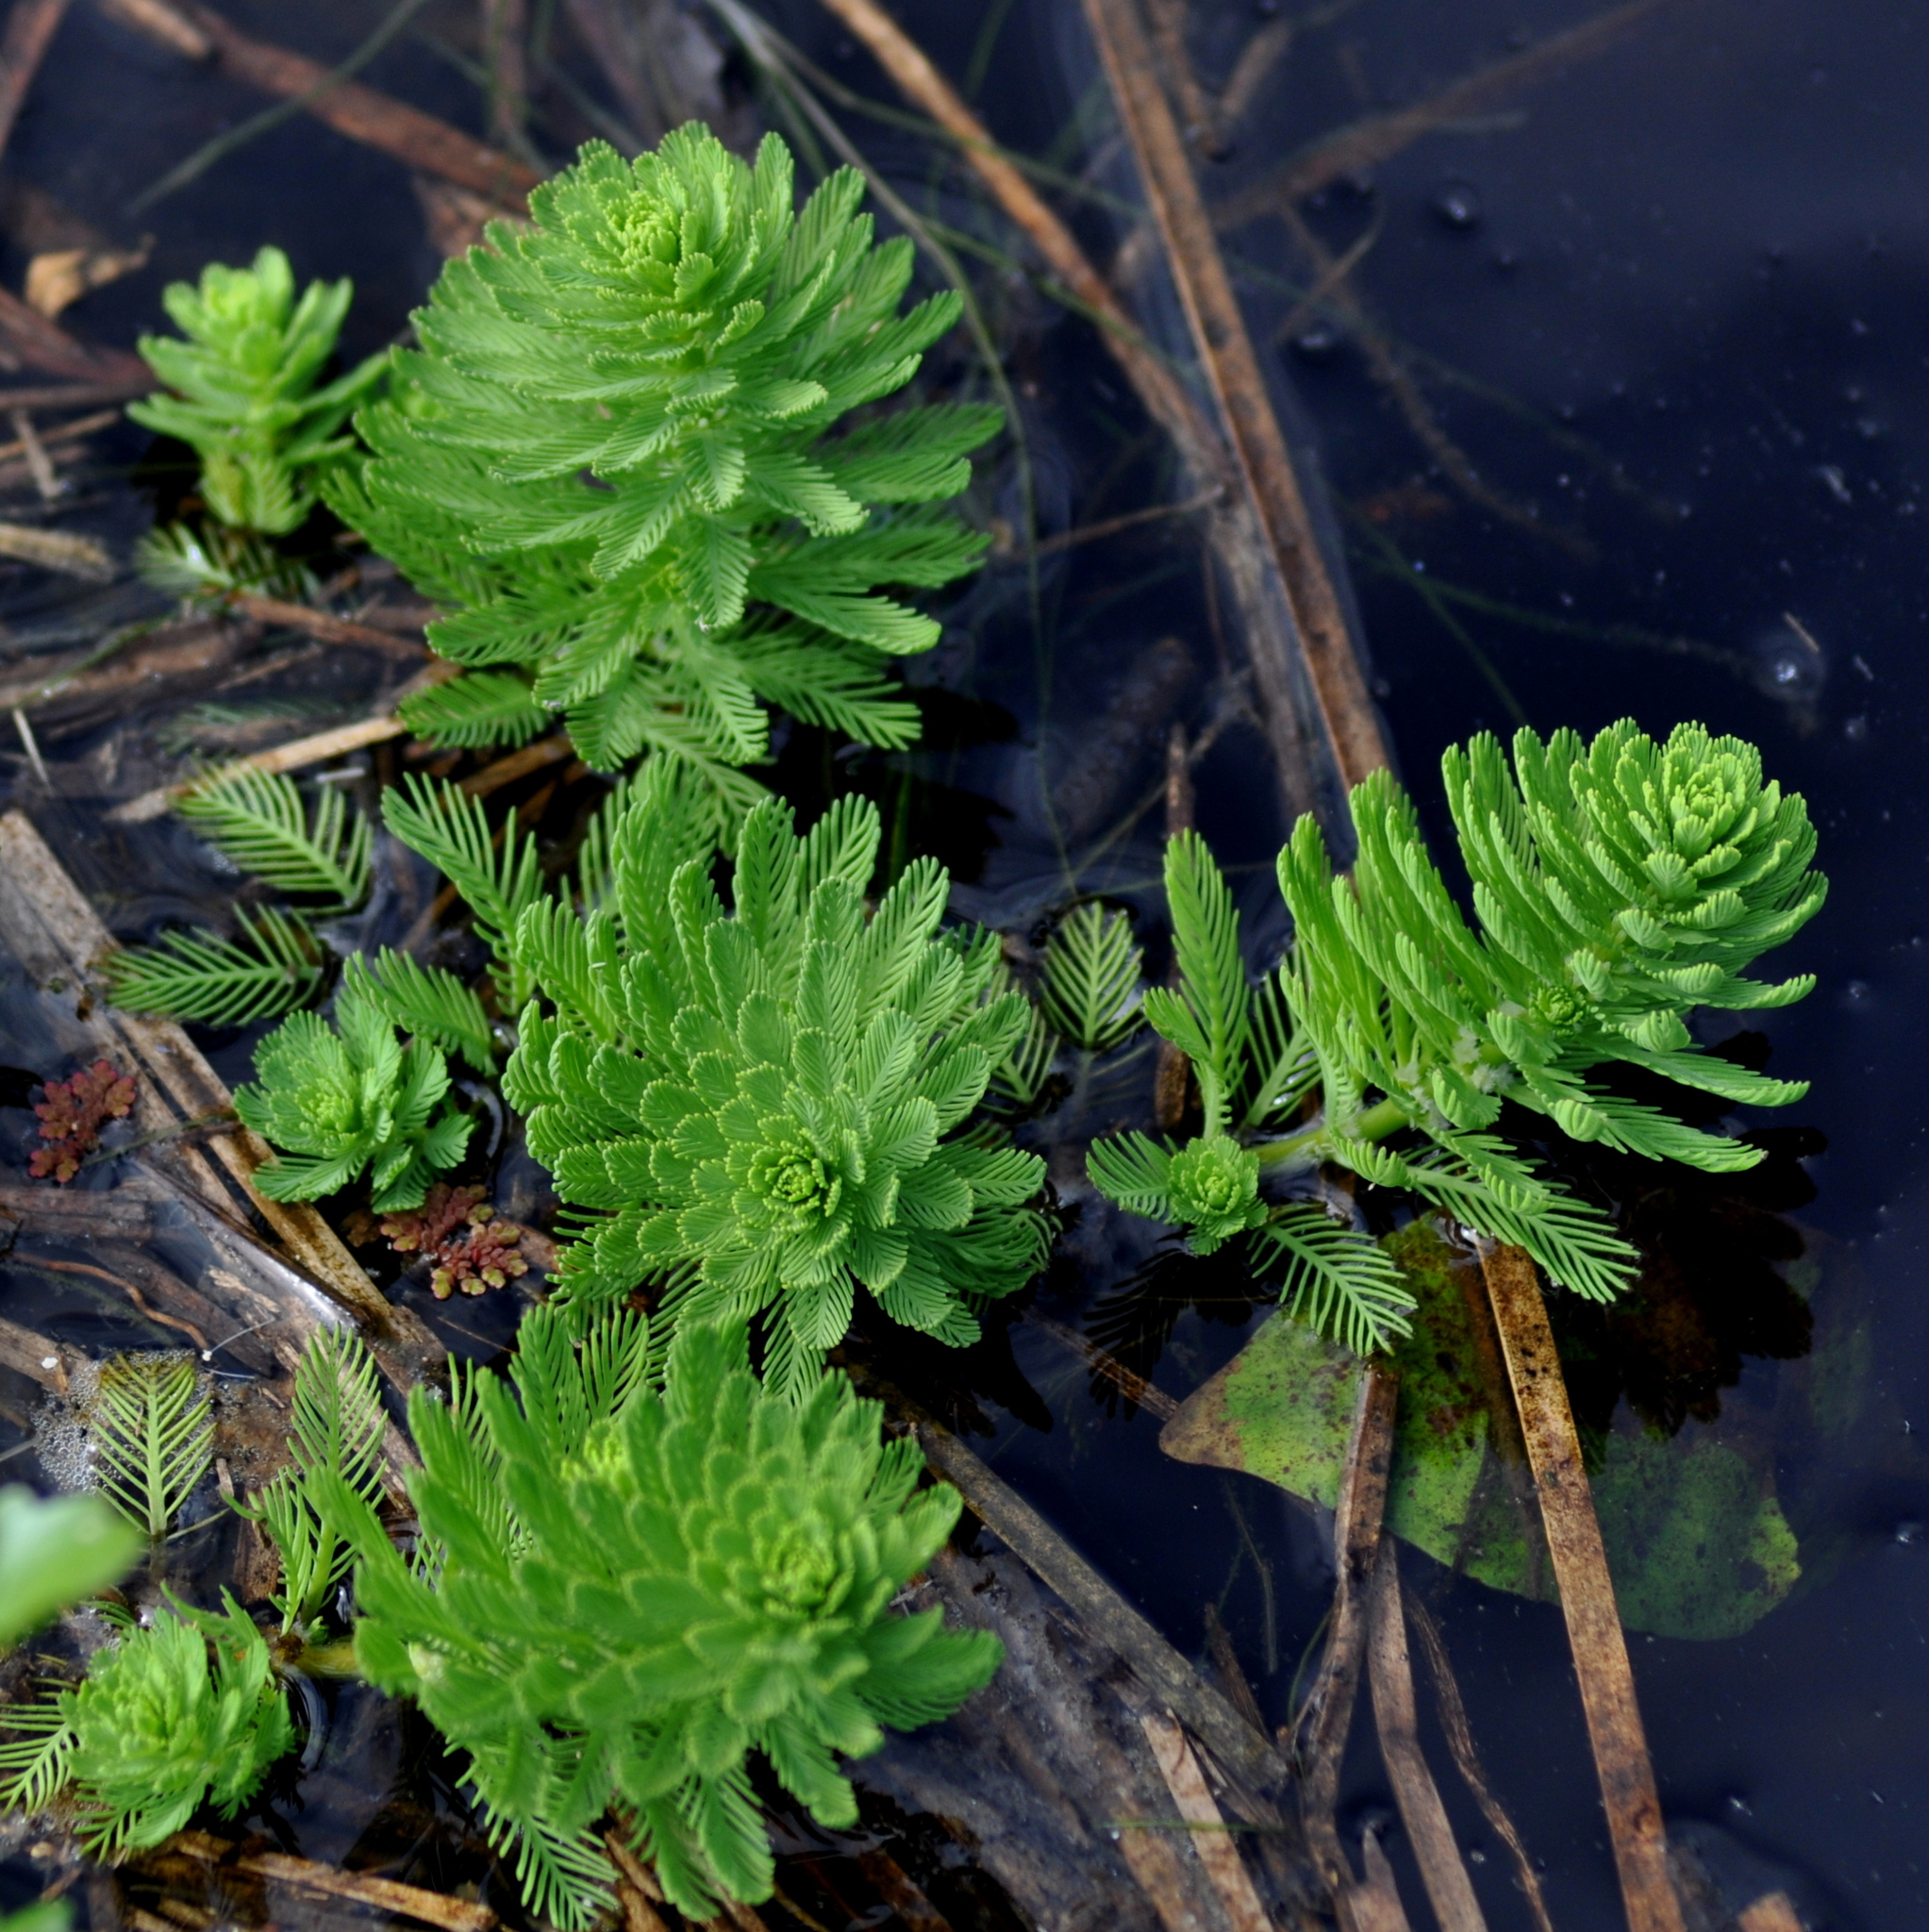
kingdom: Plantae
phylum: Tracheophyta
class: Magnoliopsida
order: Saxifragales
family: Haloragaceae
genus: Myriophyllum
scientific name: Myriophyllum aquaticum
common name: Parrot's feather
